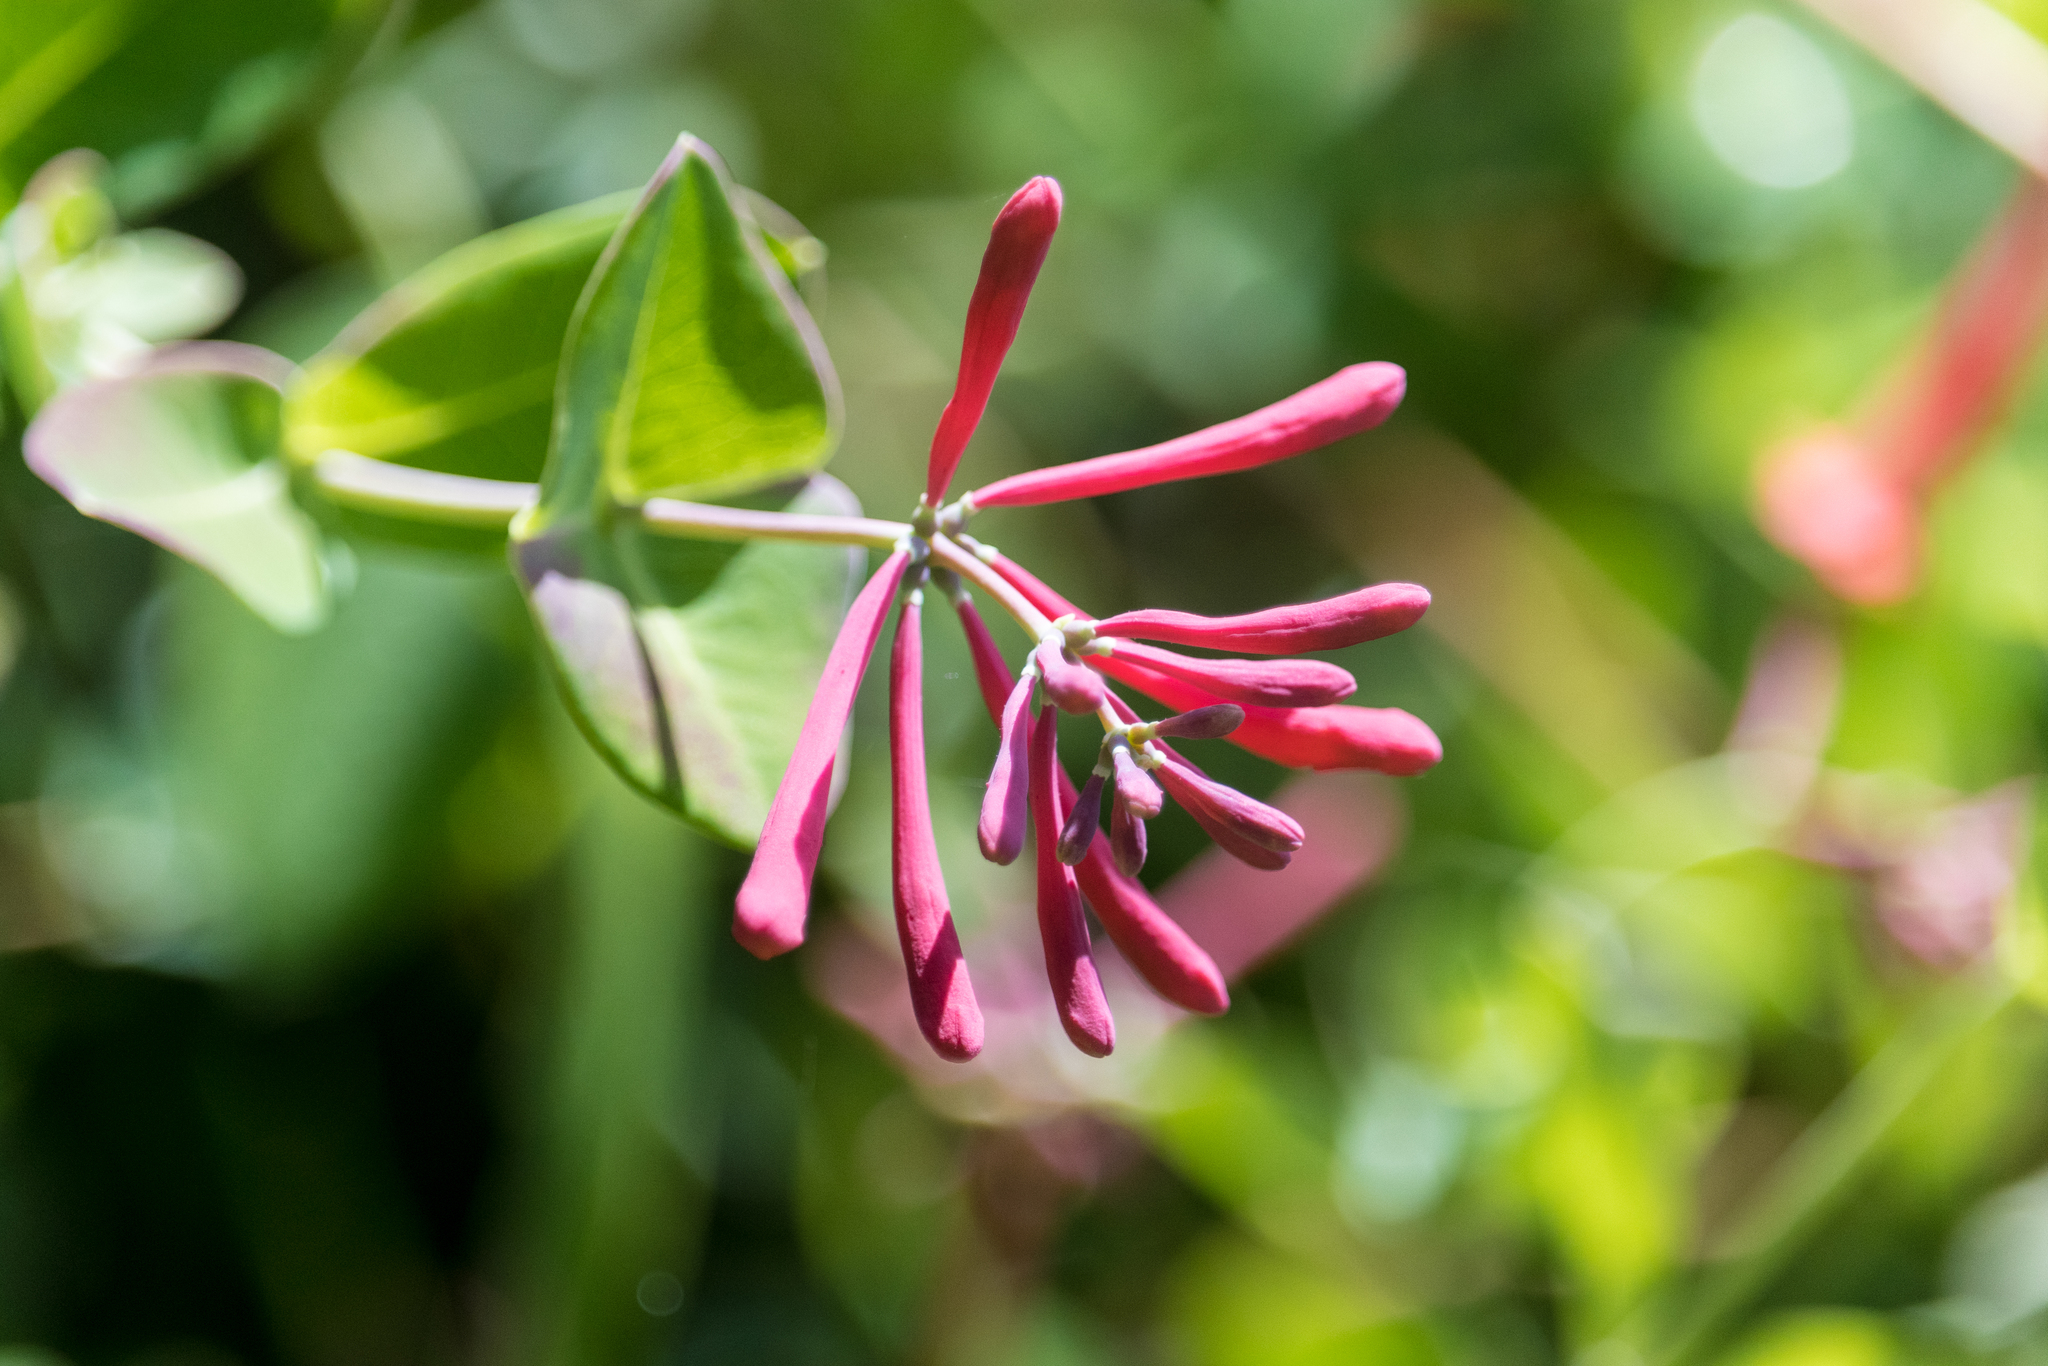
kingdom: Plantae
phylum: Tracheophyta
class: Magnoliopsida
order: Dipsacales
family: Caprifoliaceae
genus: Lonicera
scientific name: Lonicera sempervirens
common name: Coral honeysuckle
